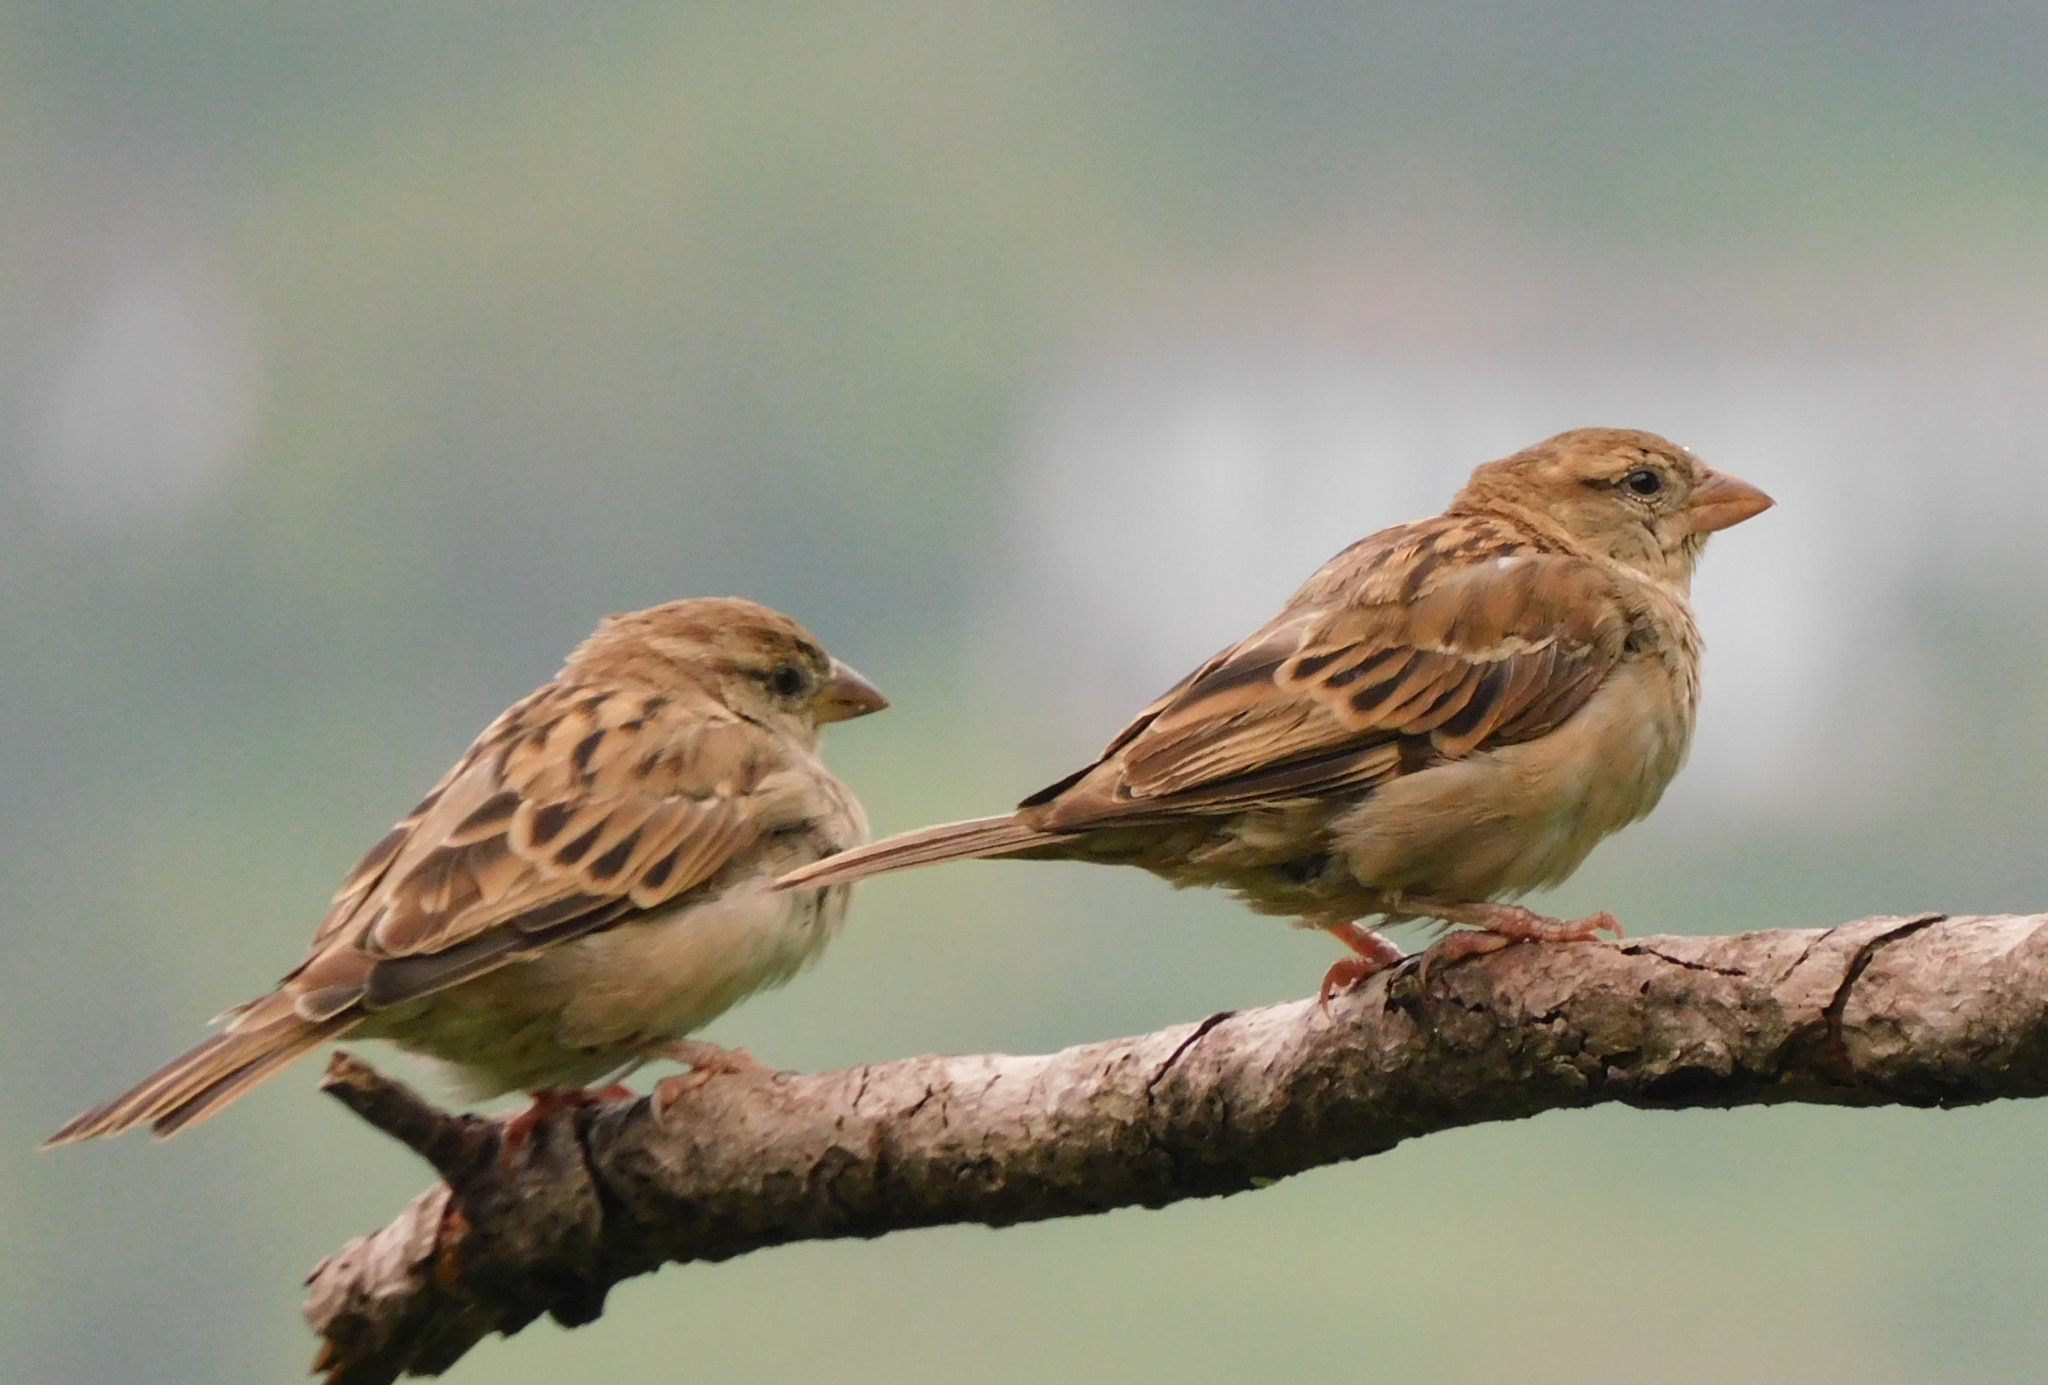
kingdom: Animalia
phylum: Chordata
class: Aves
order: Passeriformes
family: Passeridae
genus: Passer
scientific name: Passer domesticus
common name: House sparrow
